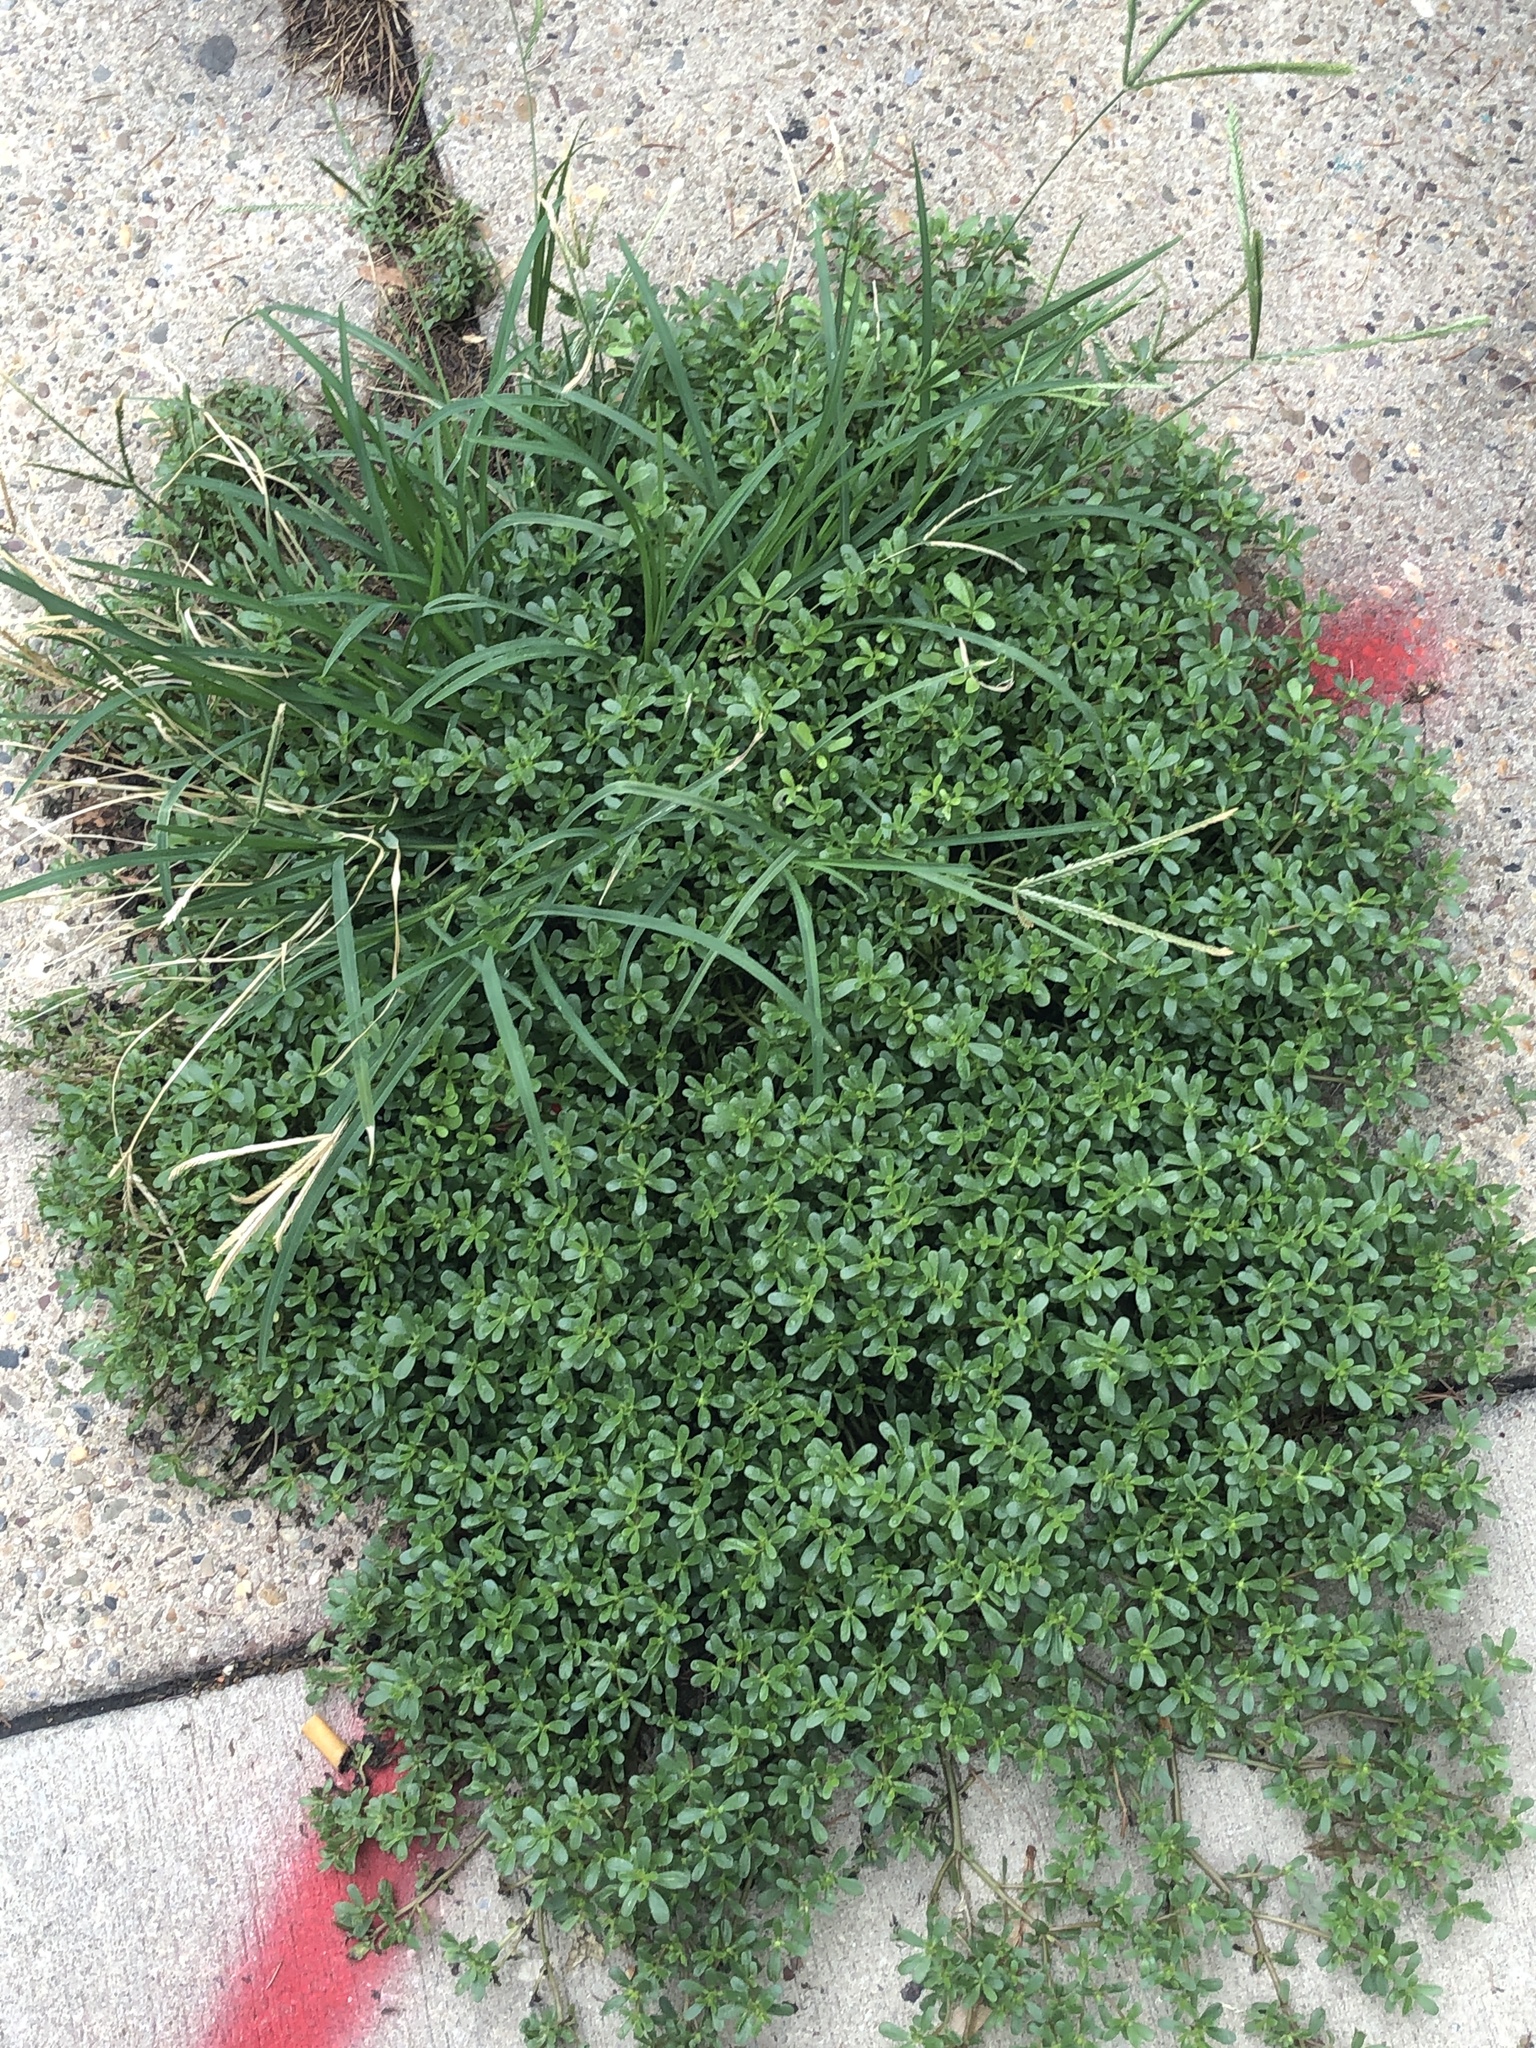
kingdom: Plantae
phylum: Tracheophyta
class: Magnoliopsida
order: Caryophyllales
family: Portulacaceae
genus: Portulaca
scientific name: Portulaca oleracea
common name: Common purslane
